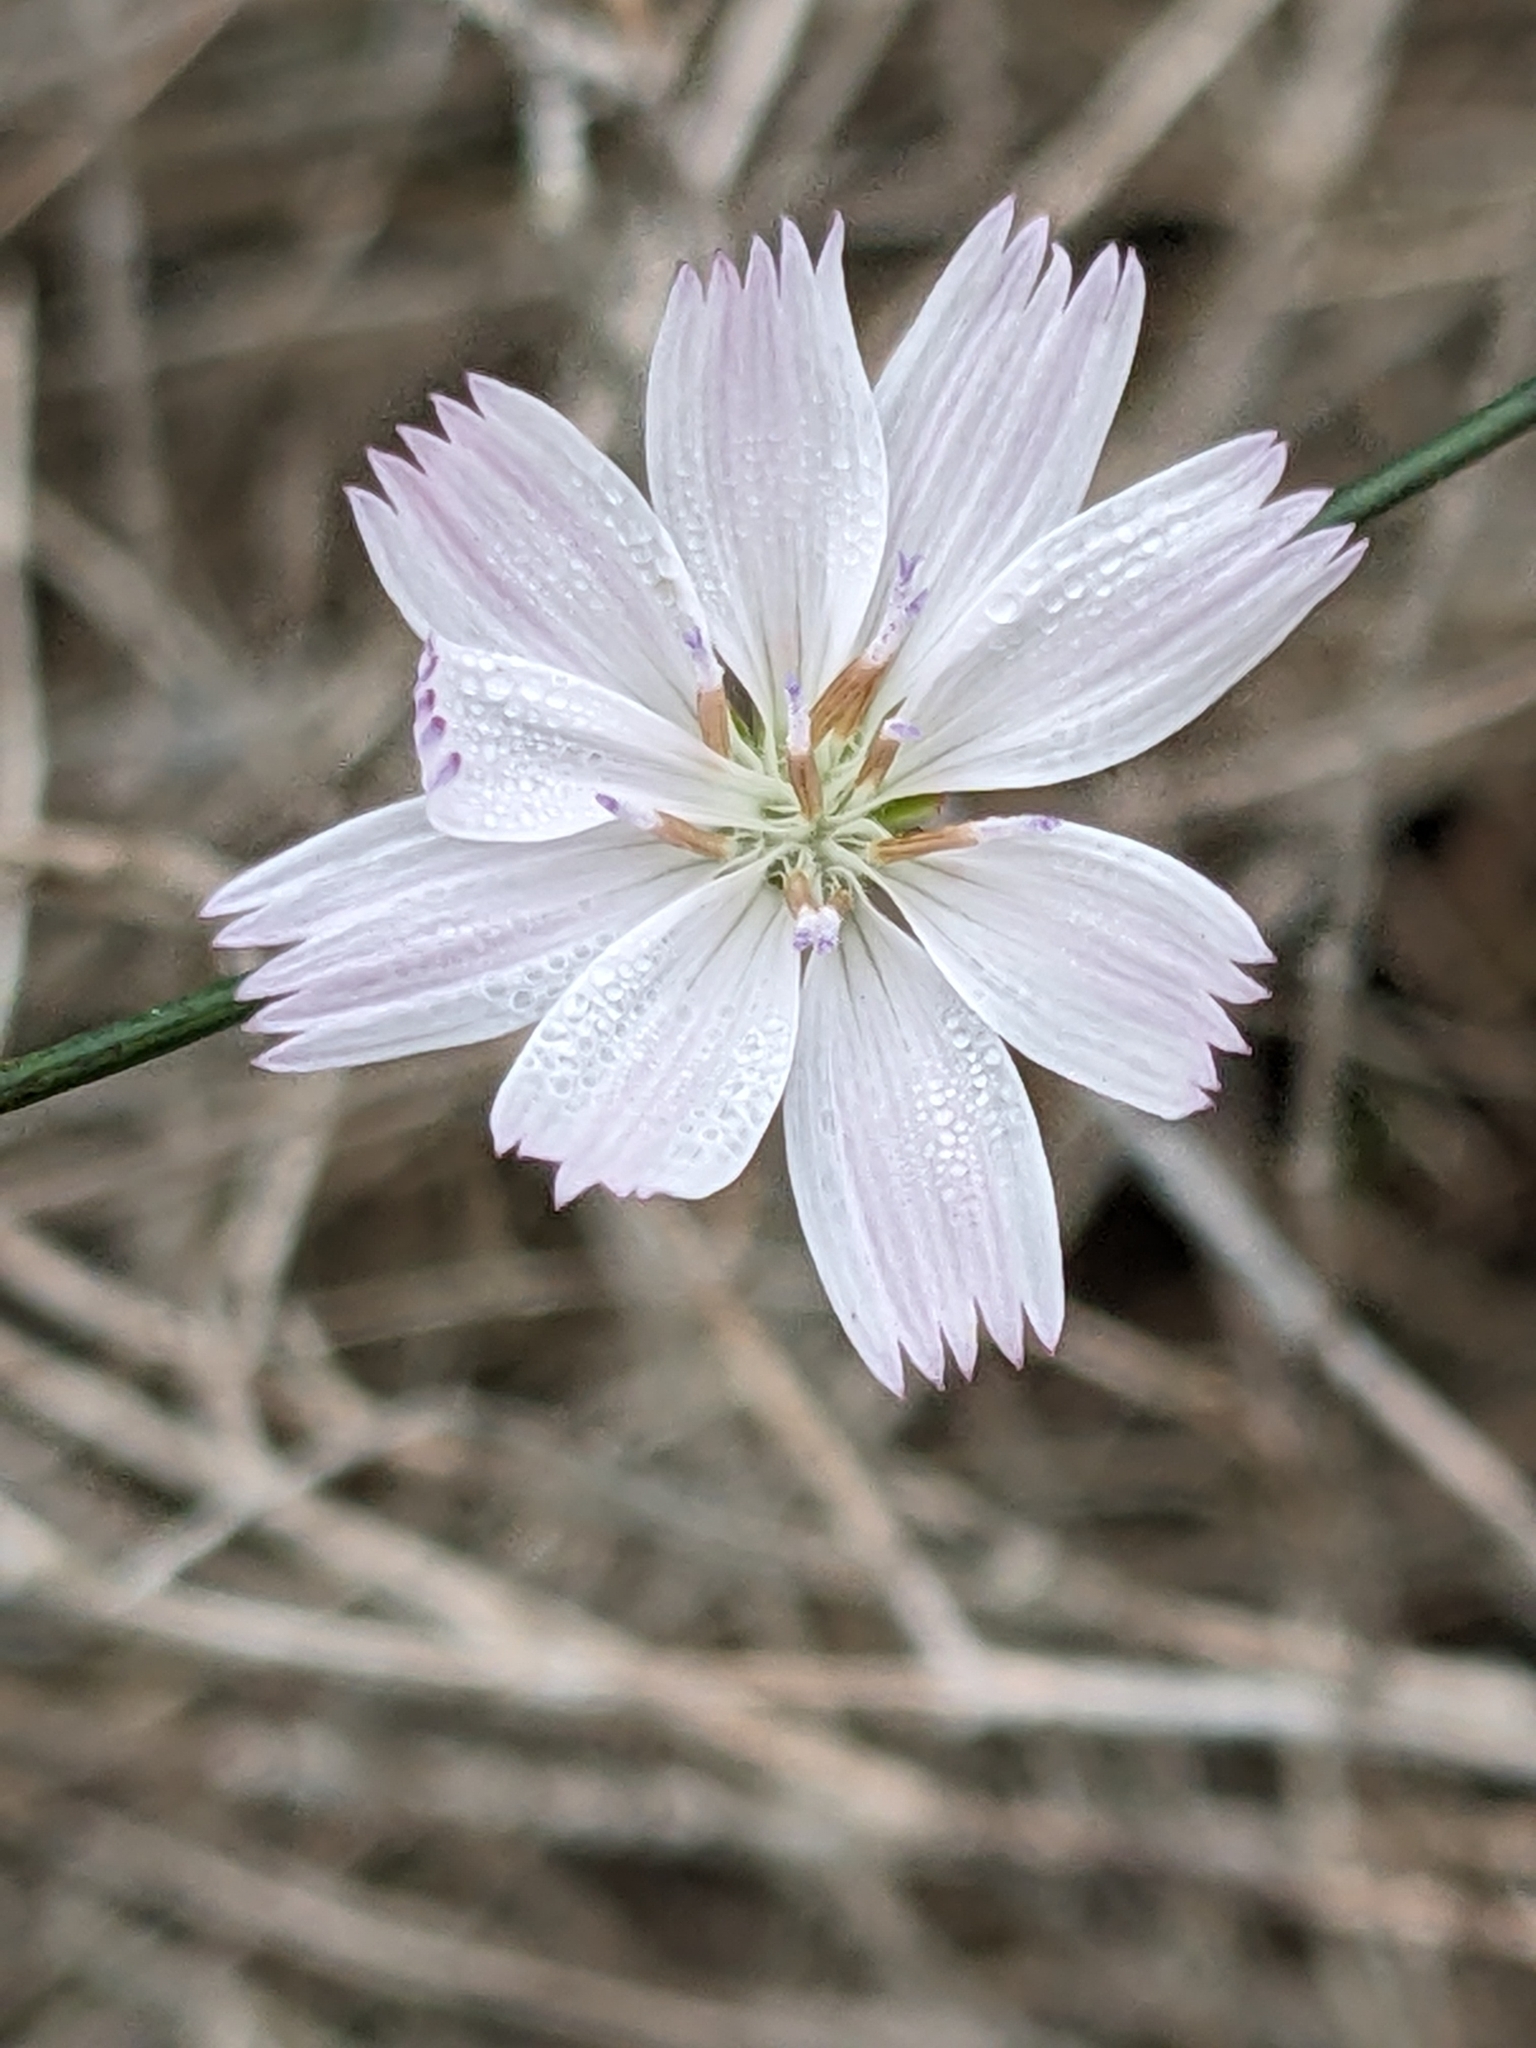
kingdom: Plantae
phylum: Tracheophyta
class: Magnoliopsida
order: Asterales
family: Asteraceae
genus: Stephanomeria
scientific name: Stephanomeria diegensis
